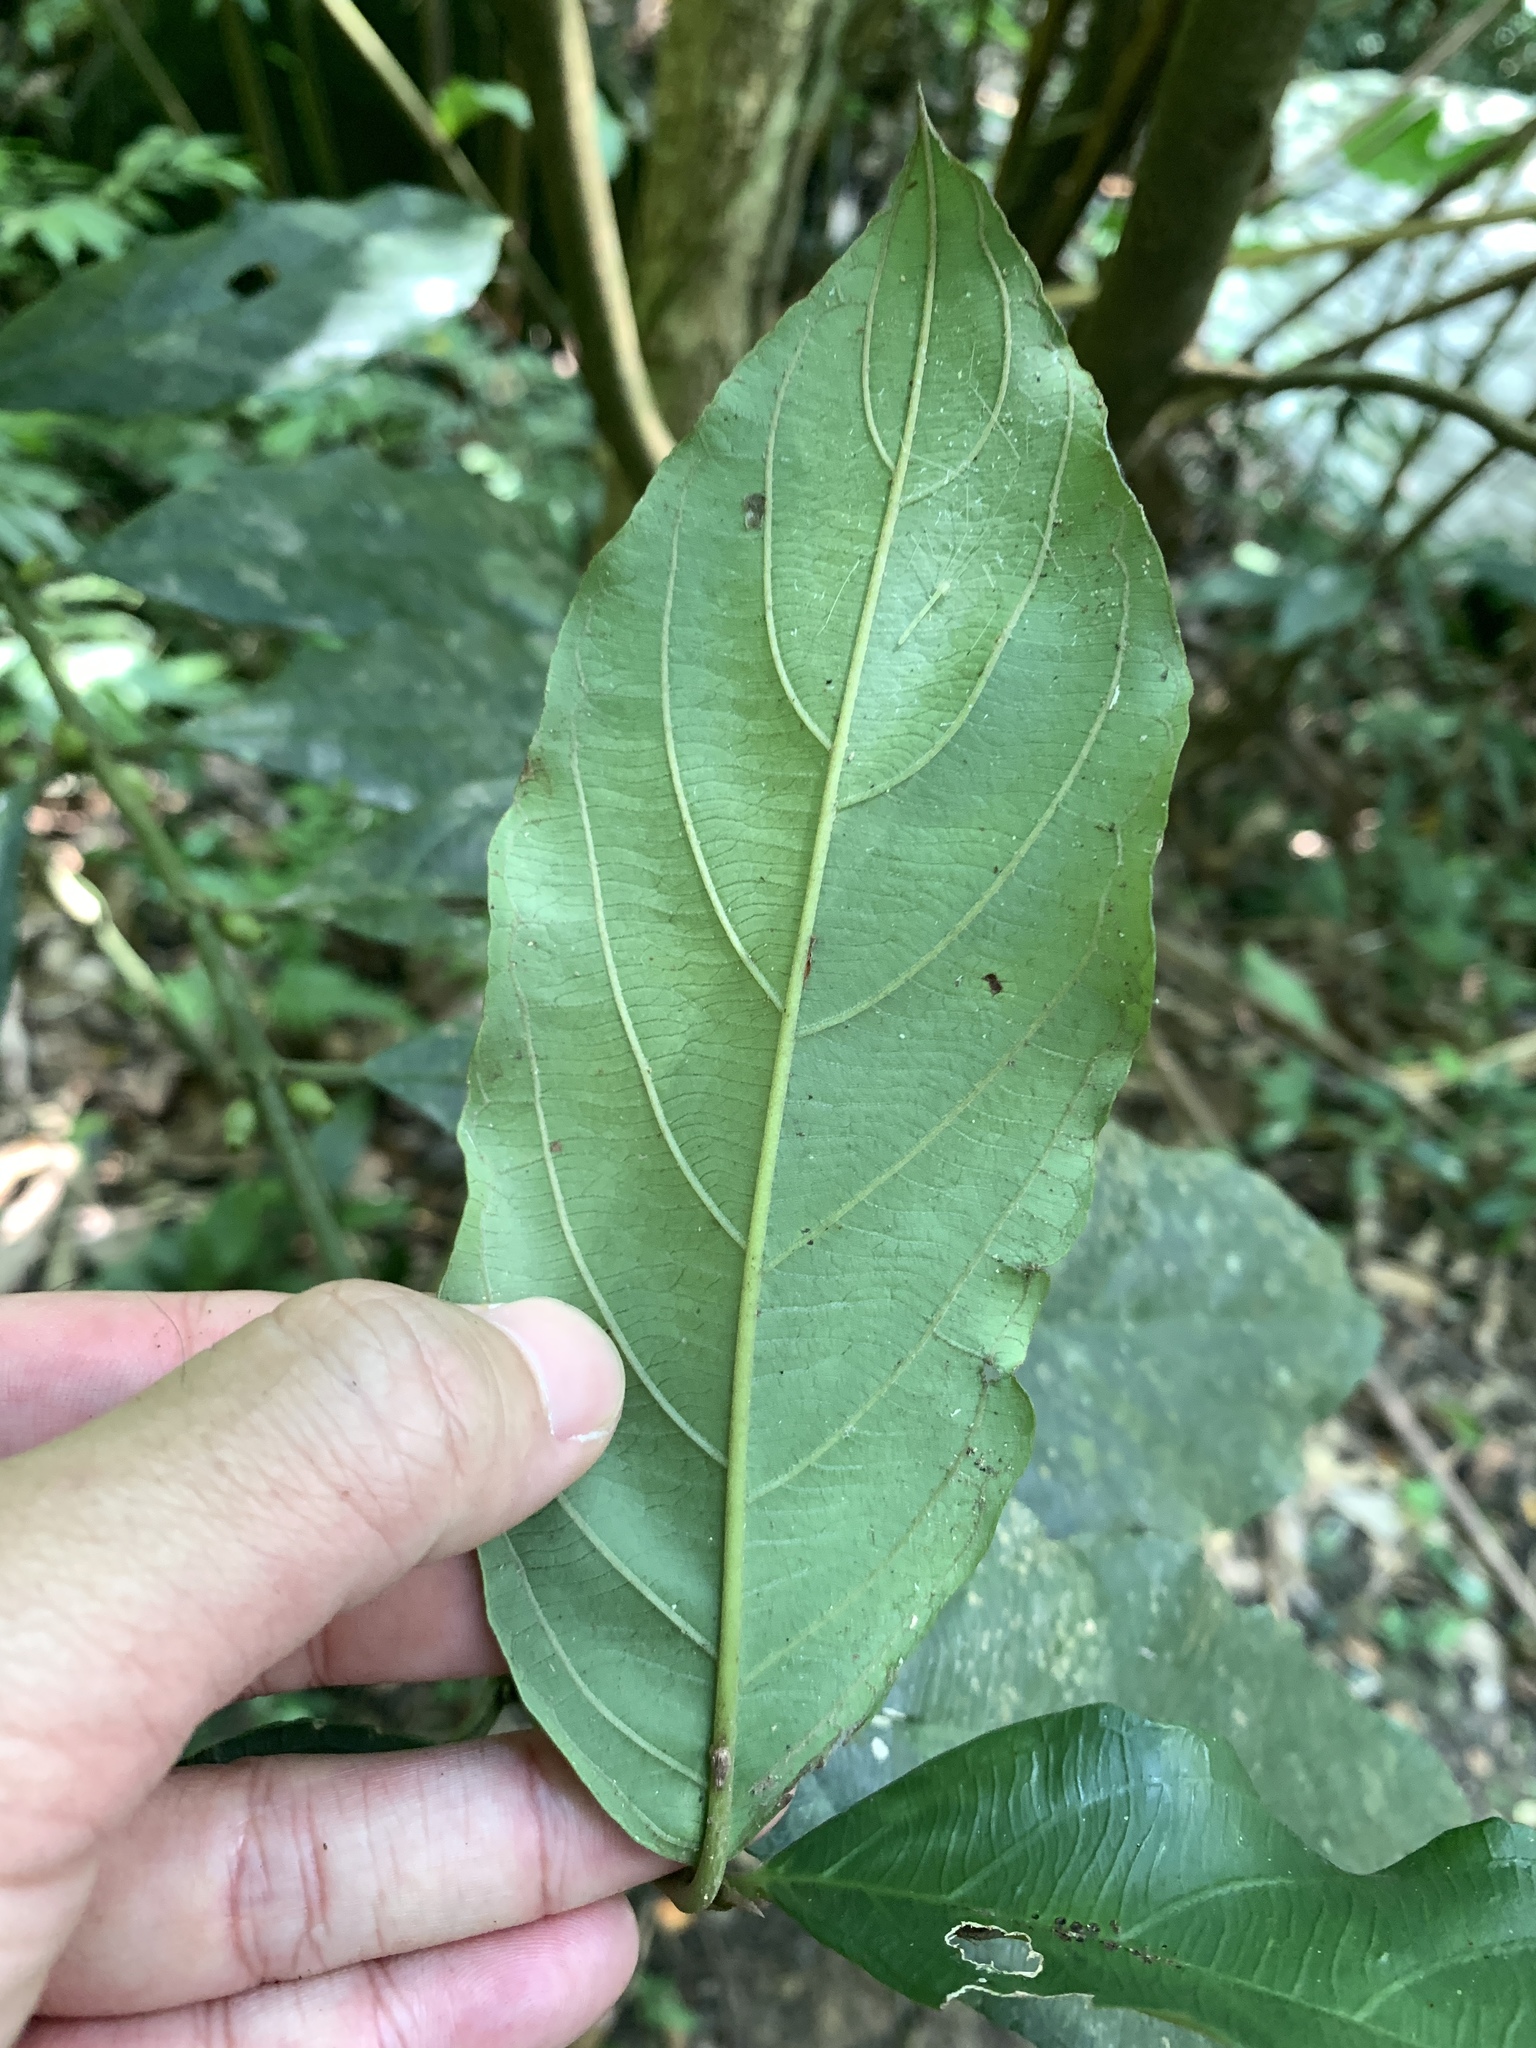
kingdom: Plantae
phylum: Tracheophyta
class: Magnoliopsida
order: Gentianales
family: Rubiaceae
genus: Lasianthus
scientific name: Lasianthus verticillatus
